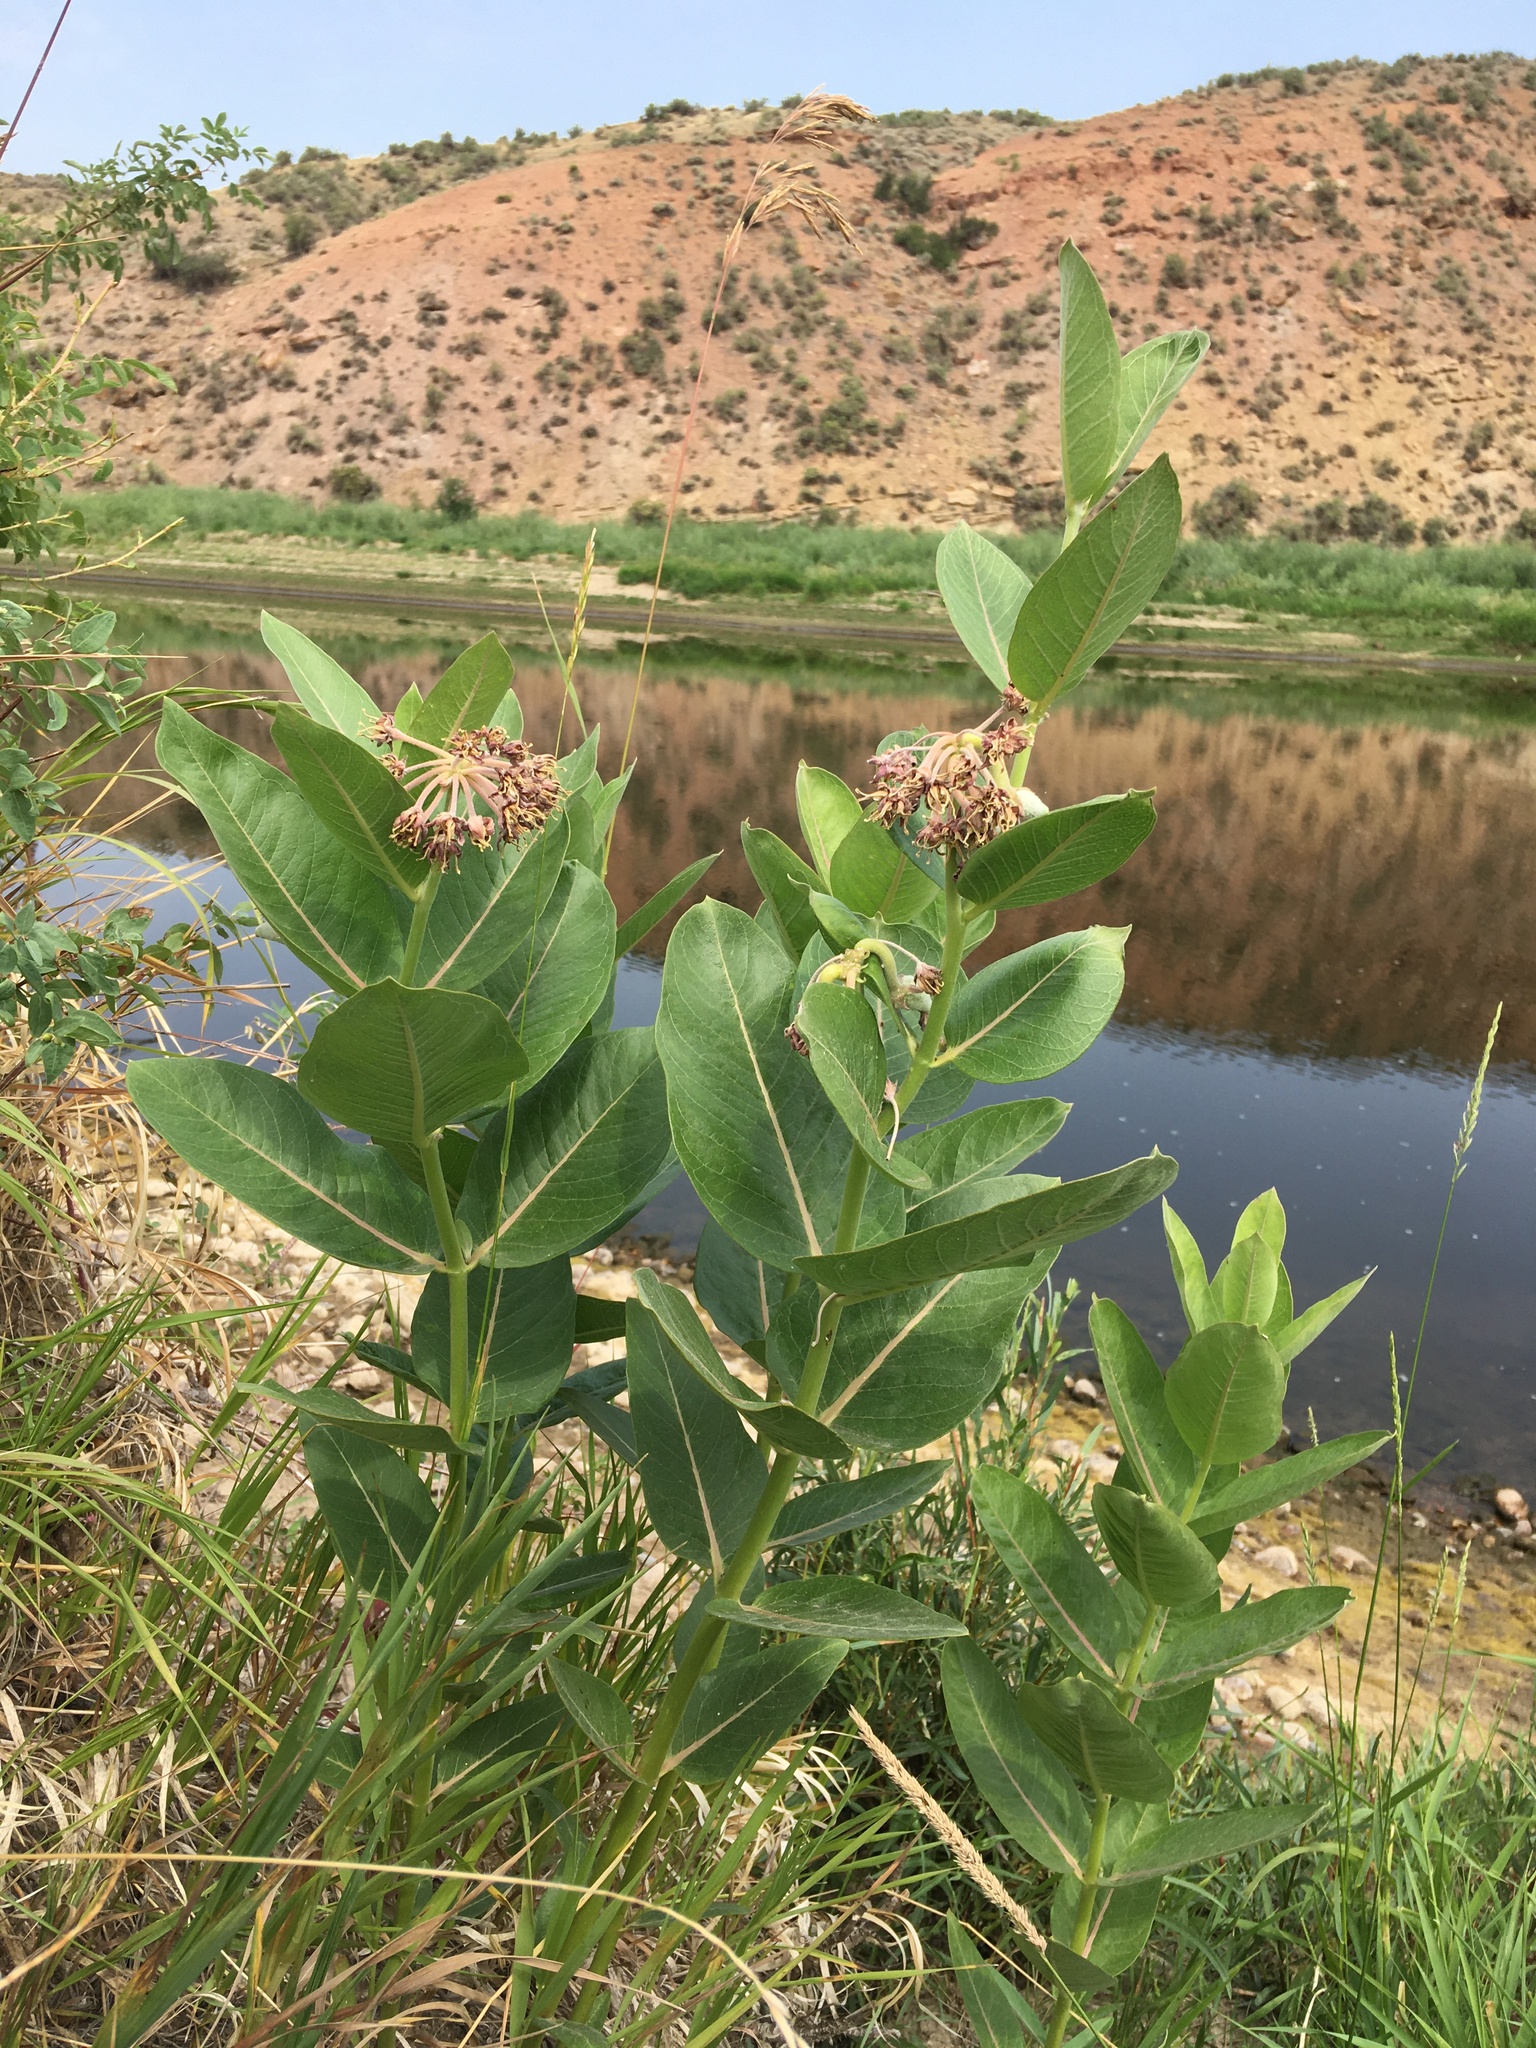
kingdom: Plantae
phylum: Tracheophyta
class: Magnoliopsida
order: Gentianales
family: Apocynaceae
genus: Asclepias
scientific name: Asclepias speciosa
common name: Showy milkweed
